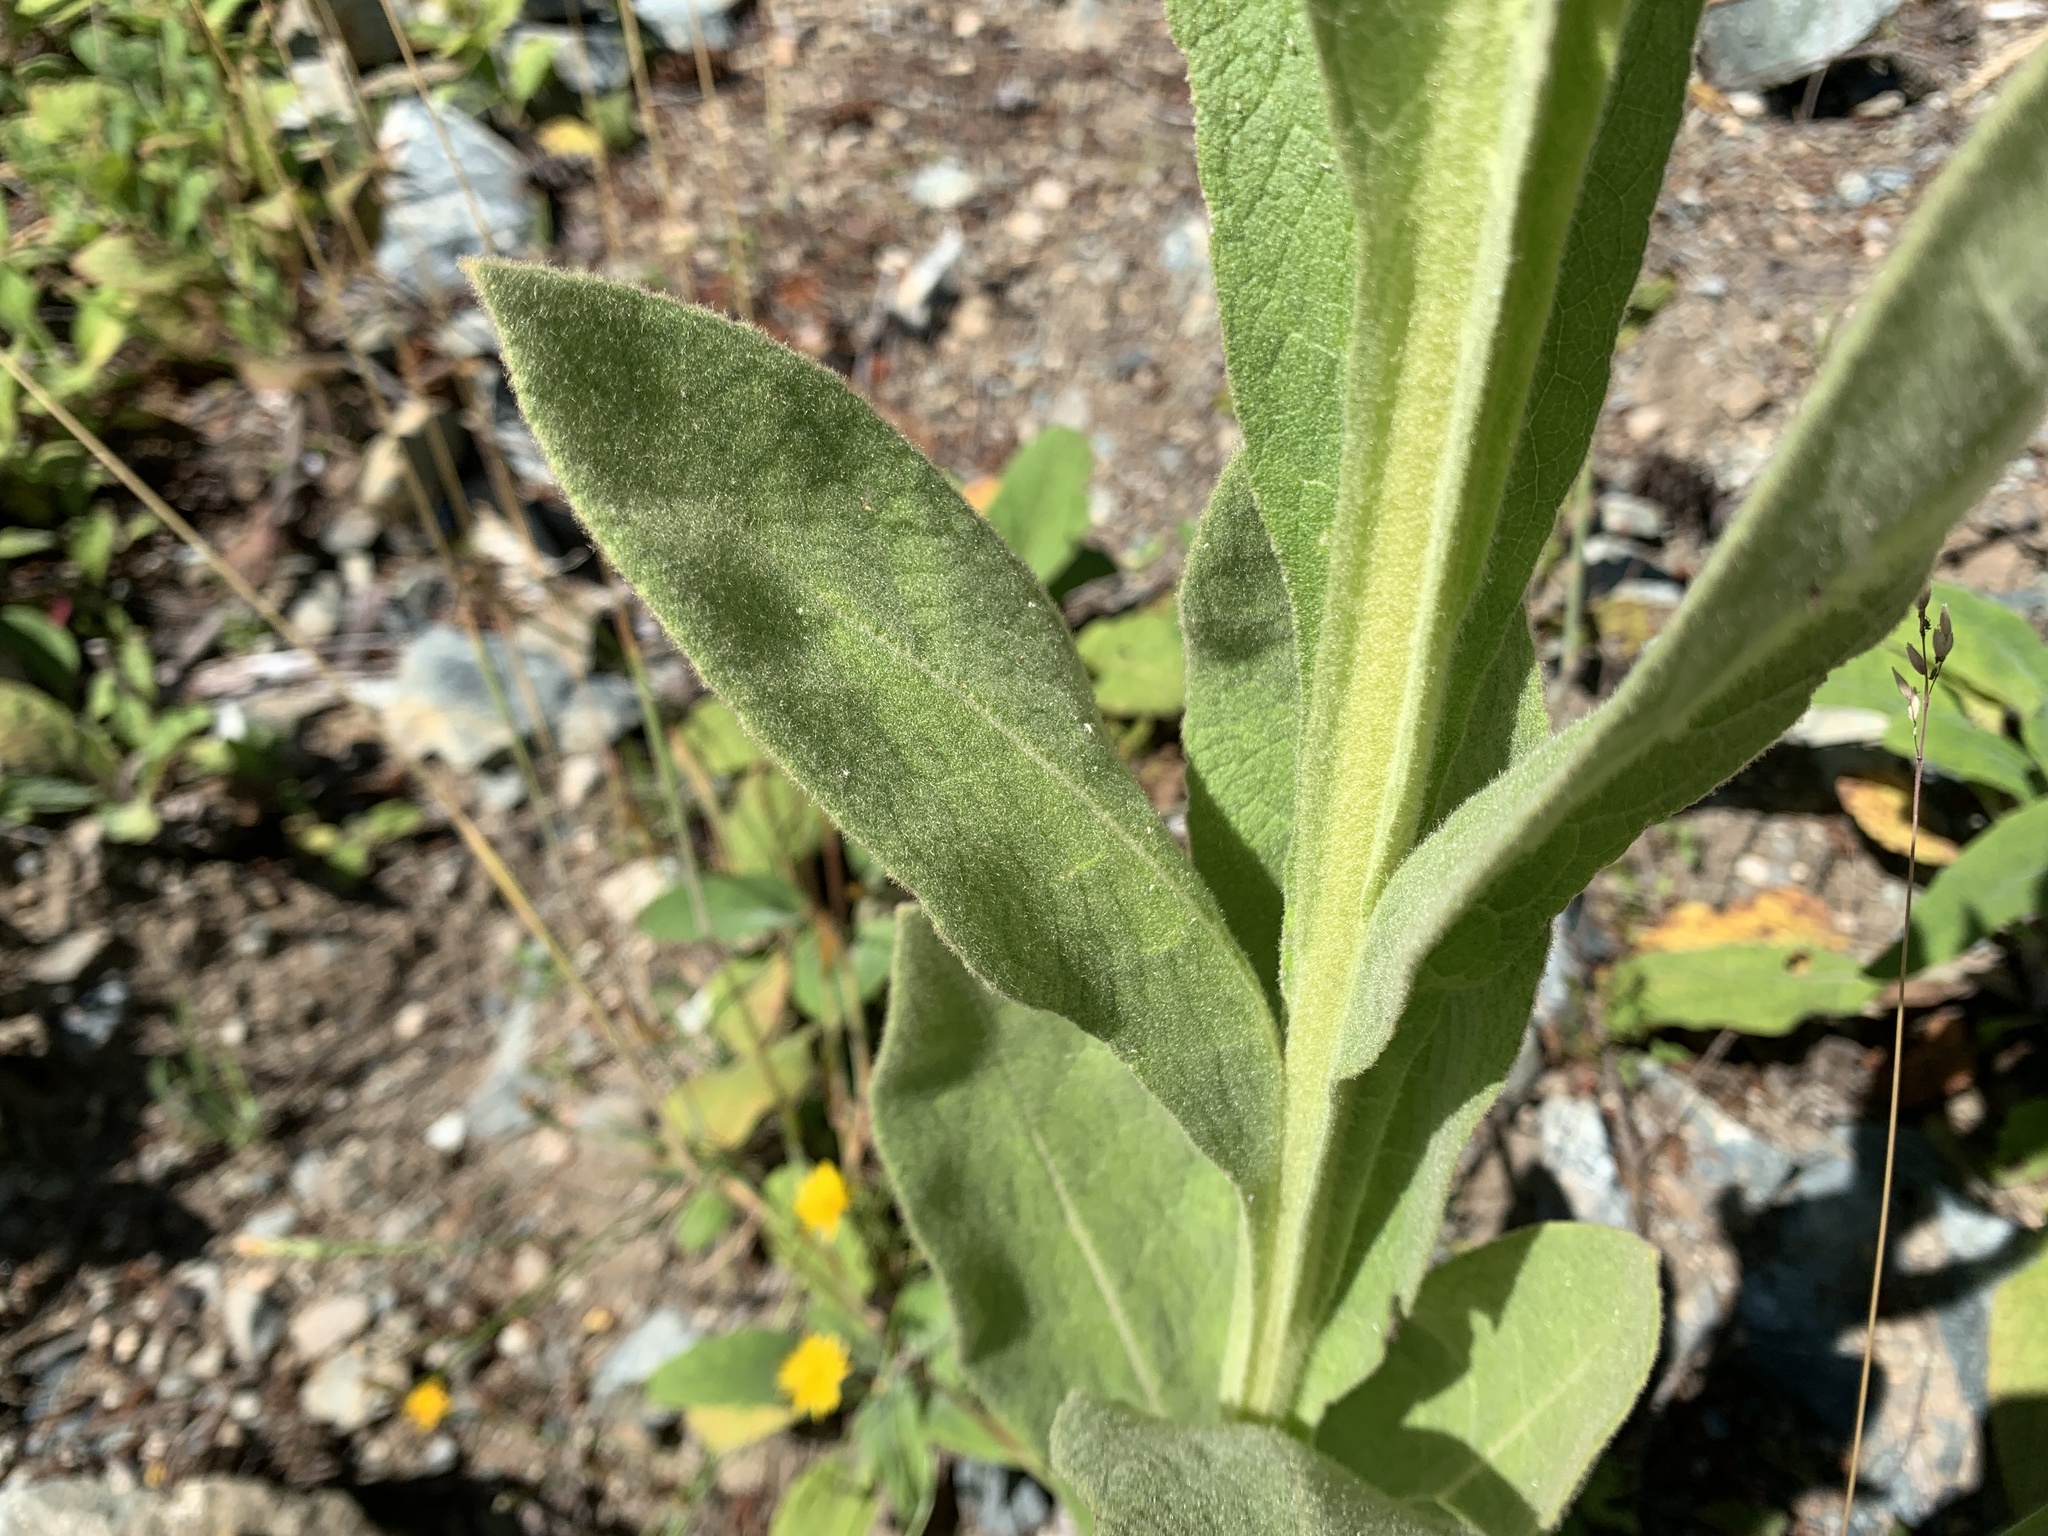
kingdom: Plantae
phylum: Tracheophyta
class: Magnoliopsida
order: Lamiales
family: Scrophulariaceae
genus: Verbascum
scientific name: Verbascum thapsus
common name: Common mullein
